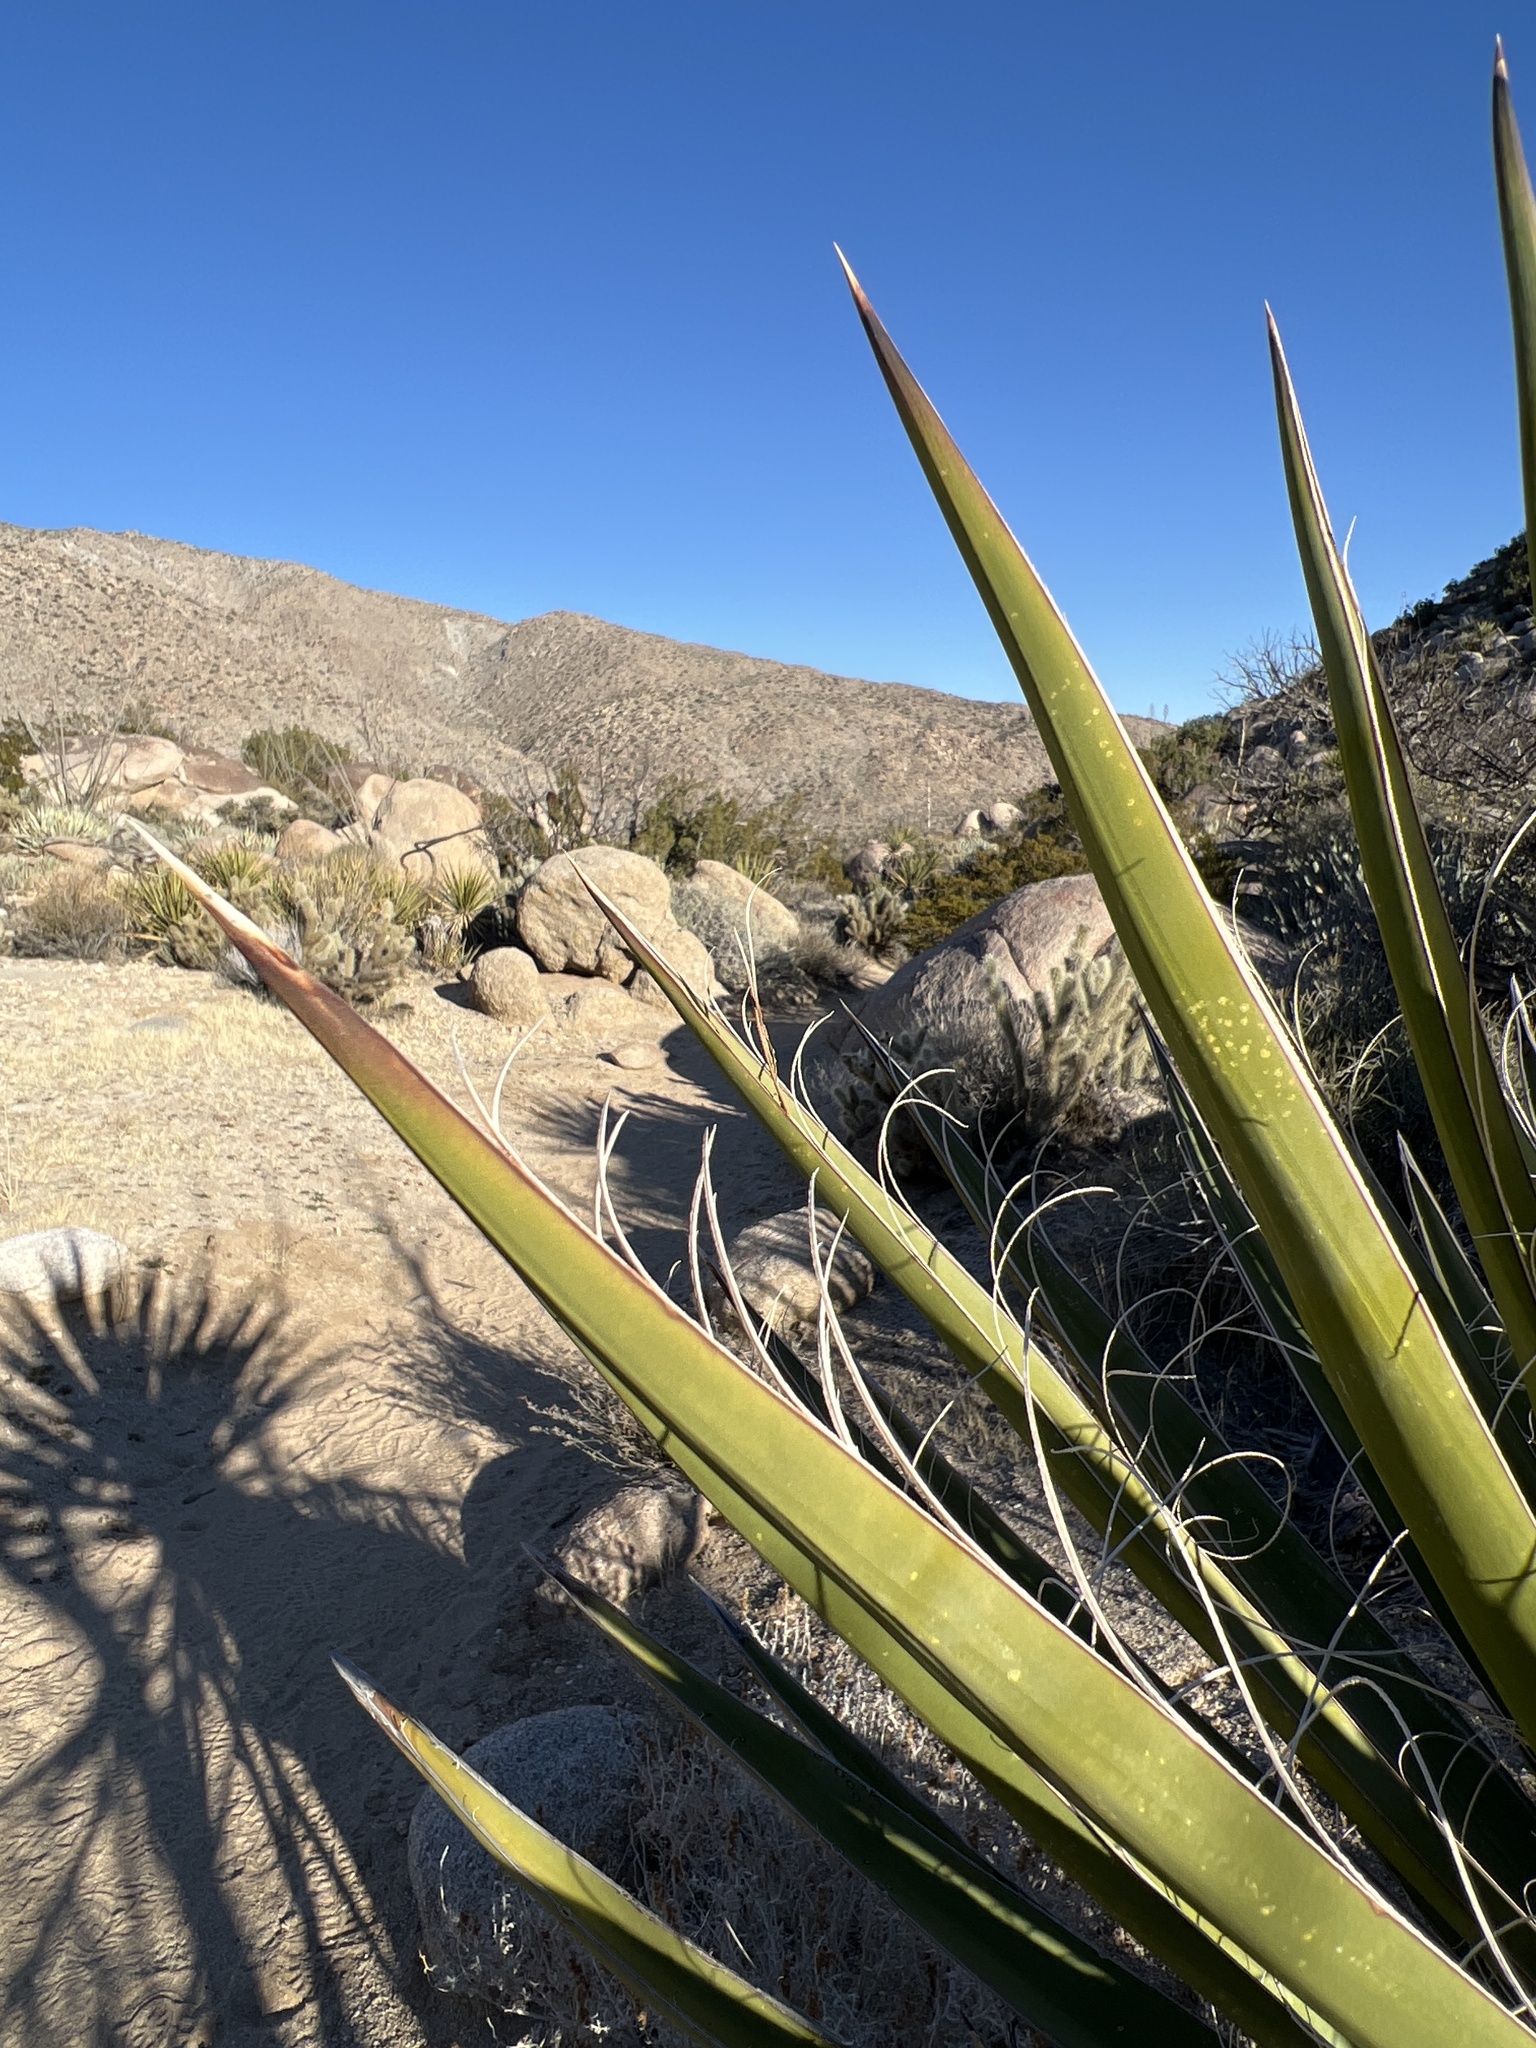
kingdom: Plantae
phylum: Tracheophyta
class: Liliopsida
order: Asparagales
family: Asparagaceae
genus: Yucca
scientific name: Yucca schidigera
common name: Mojave yucca
